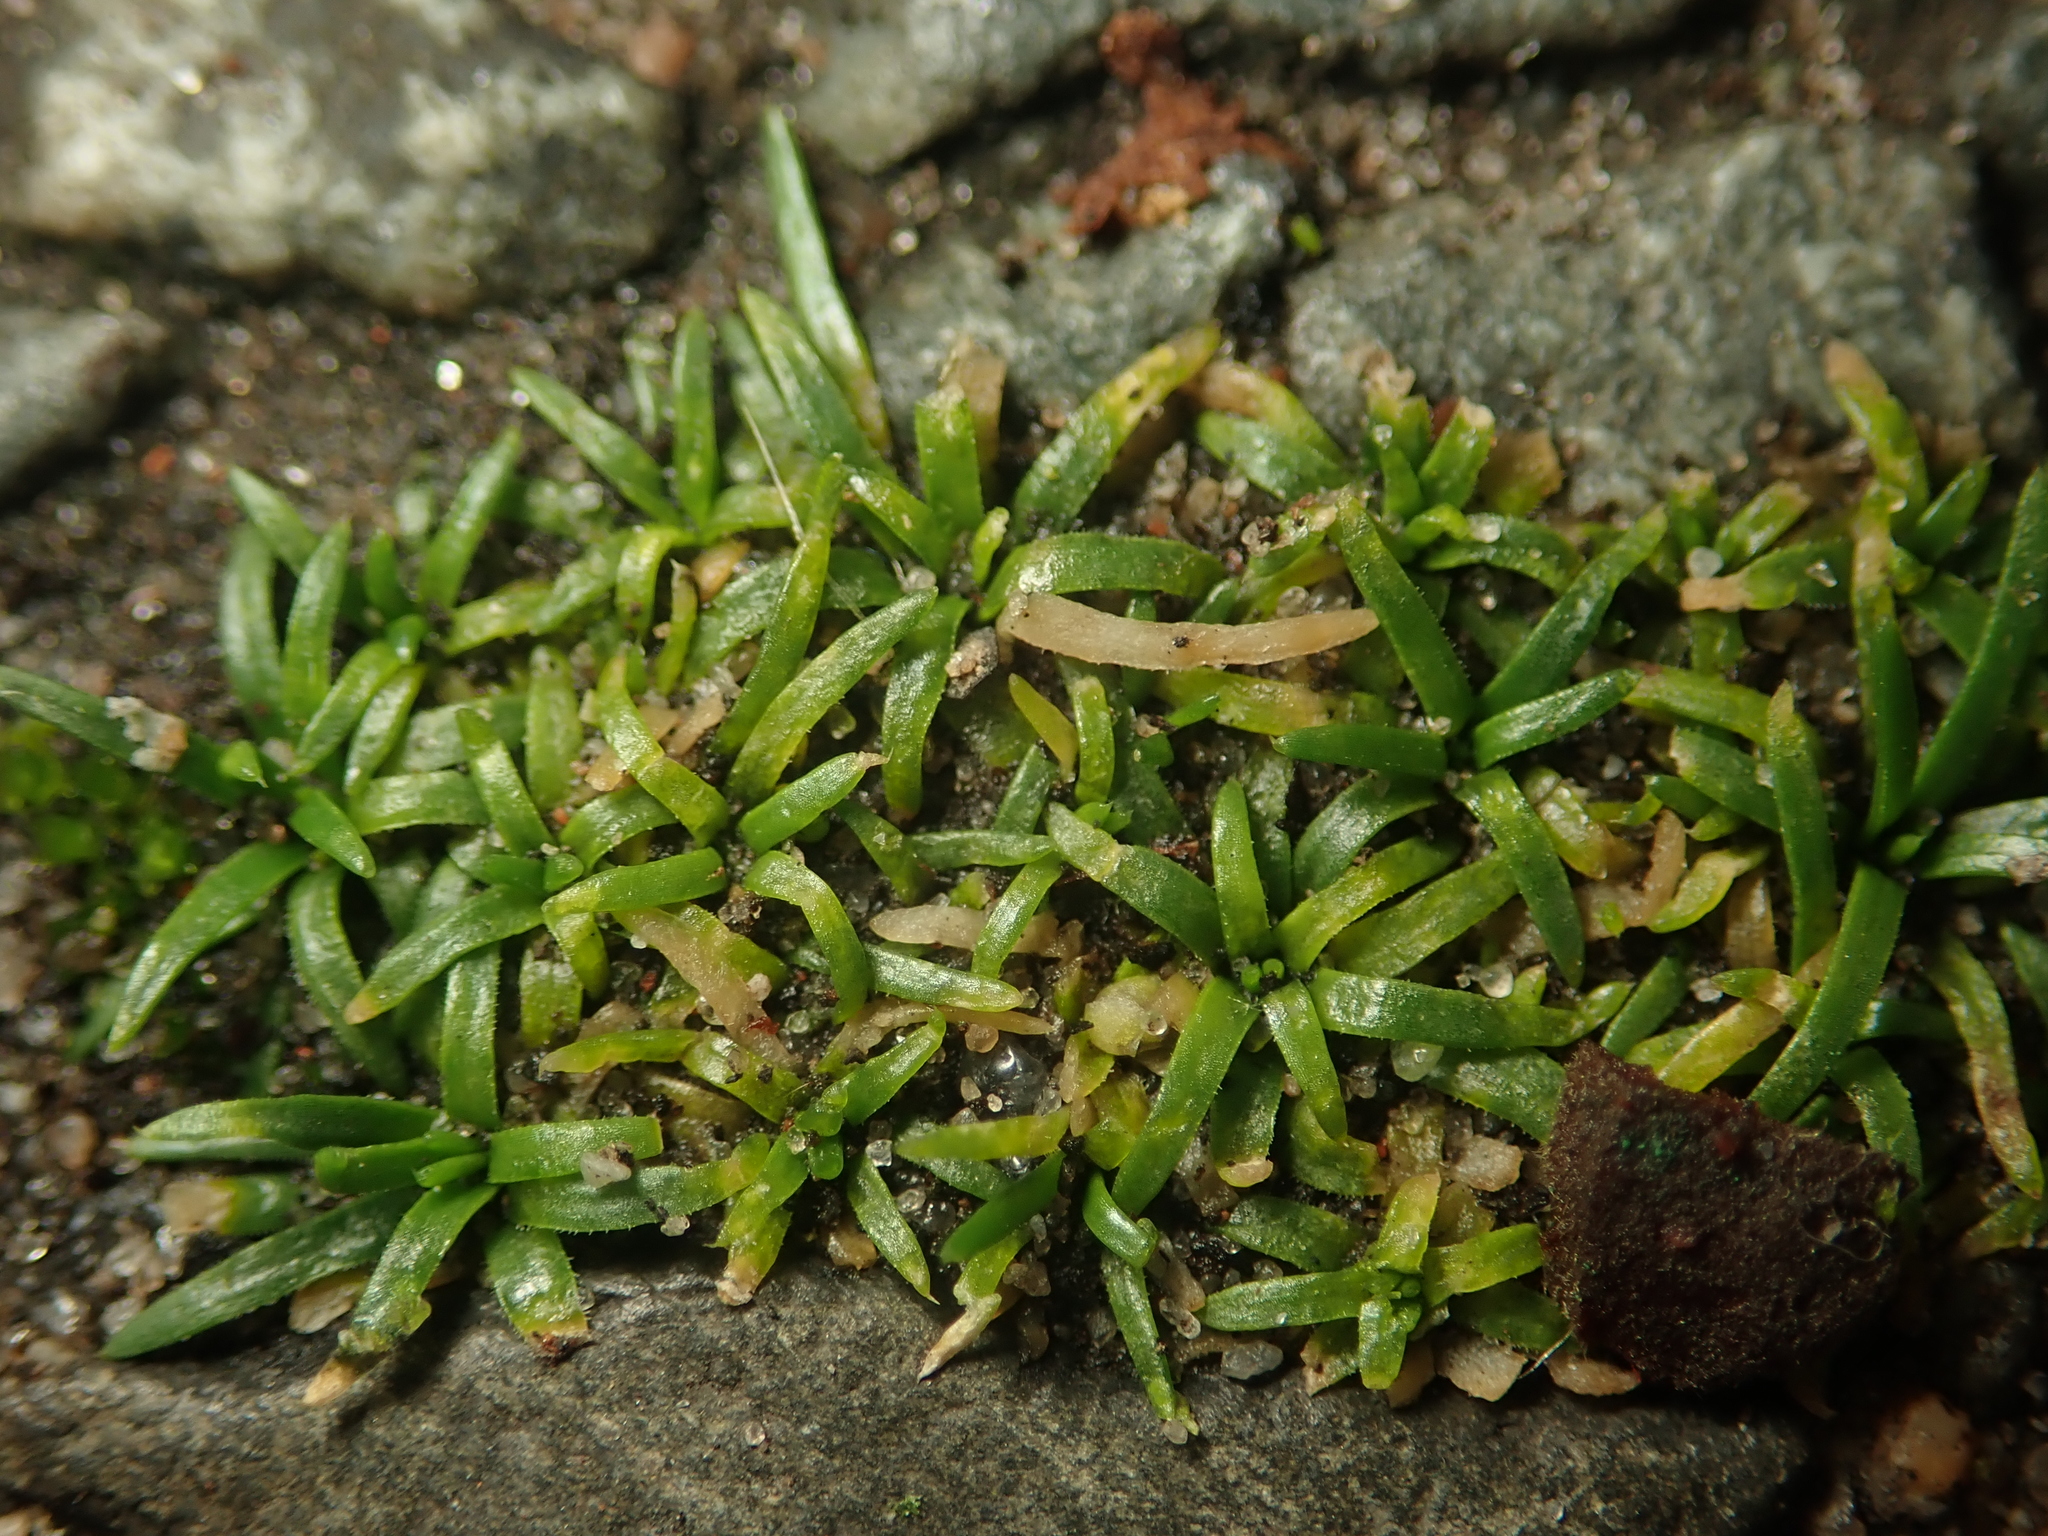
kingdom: Plantae
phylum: Tracheophyta
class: Magnoliopsida
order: Caryophyllales
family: Caryophyllaceae
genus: Sagina
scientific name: Sagina procumbens
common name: Procumbent pearlwort
